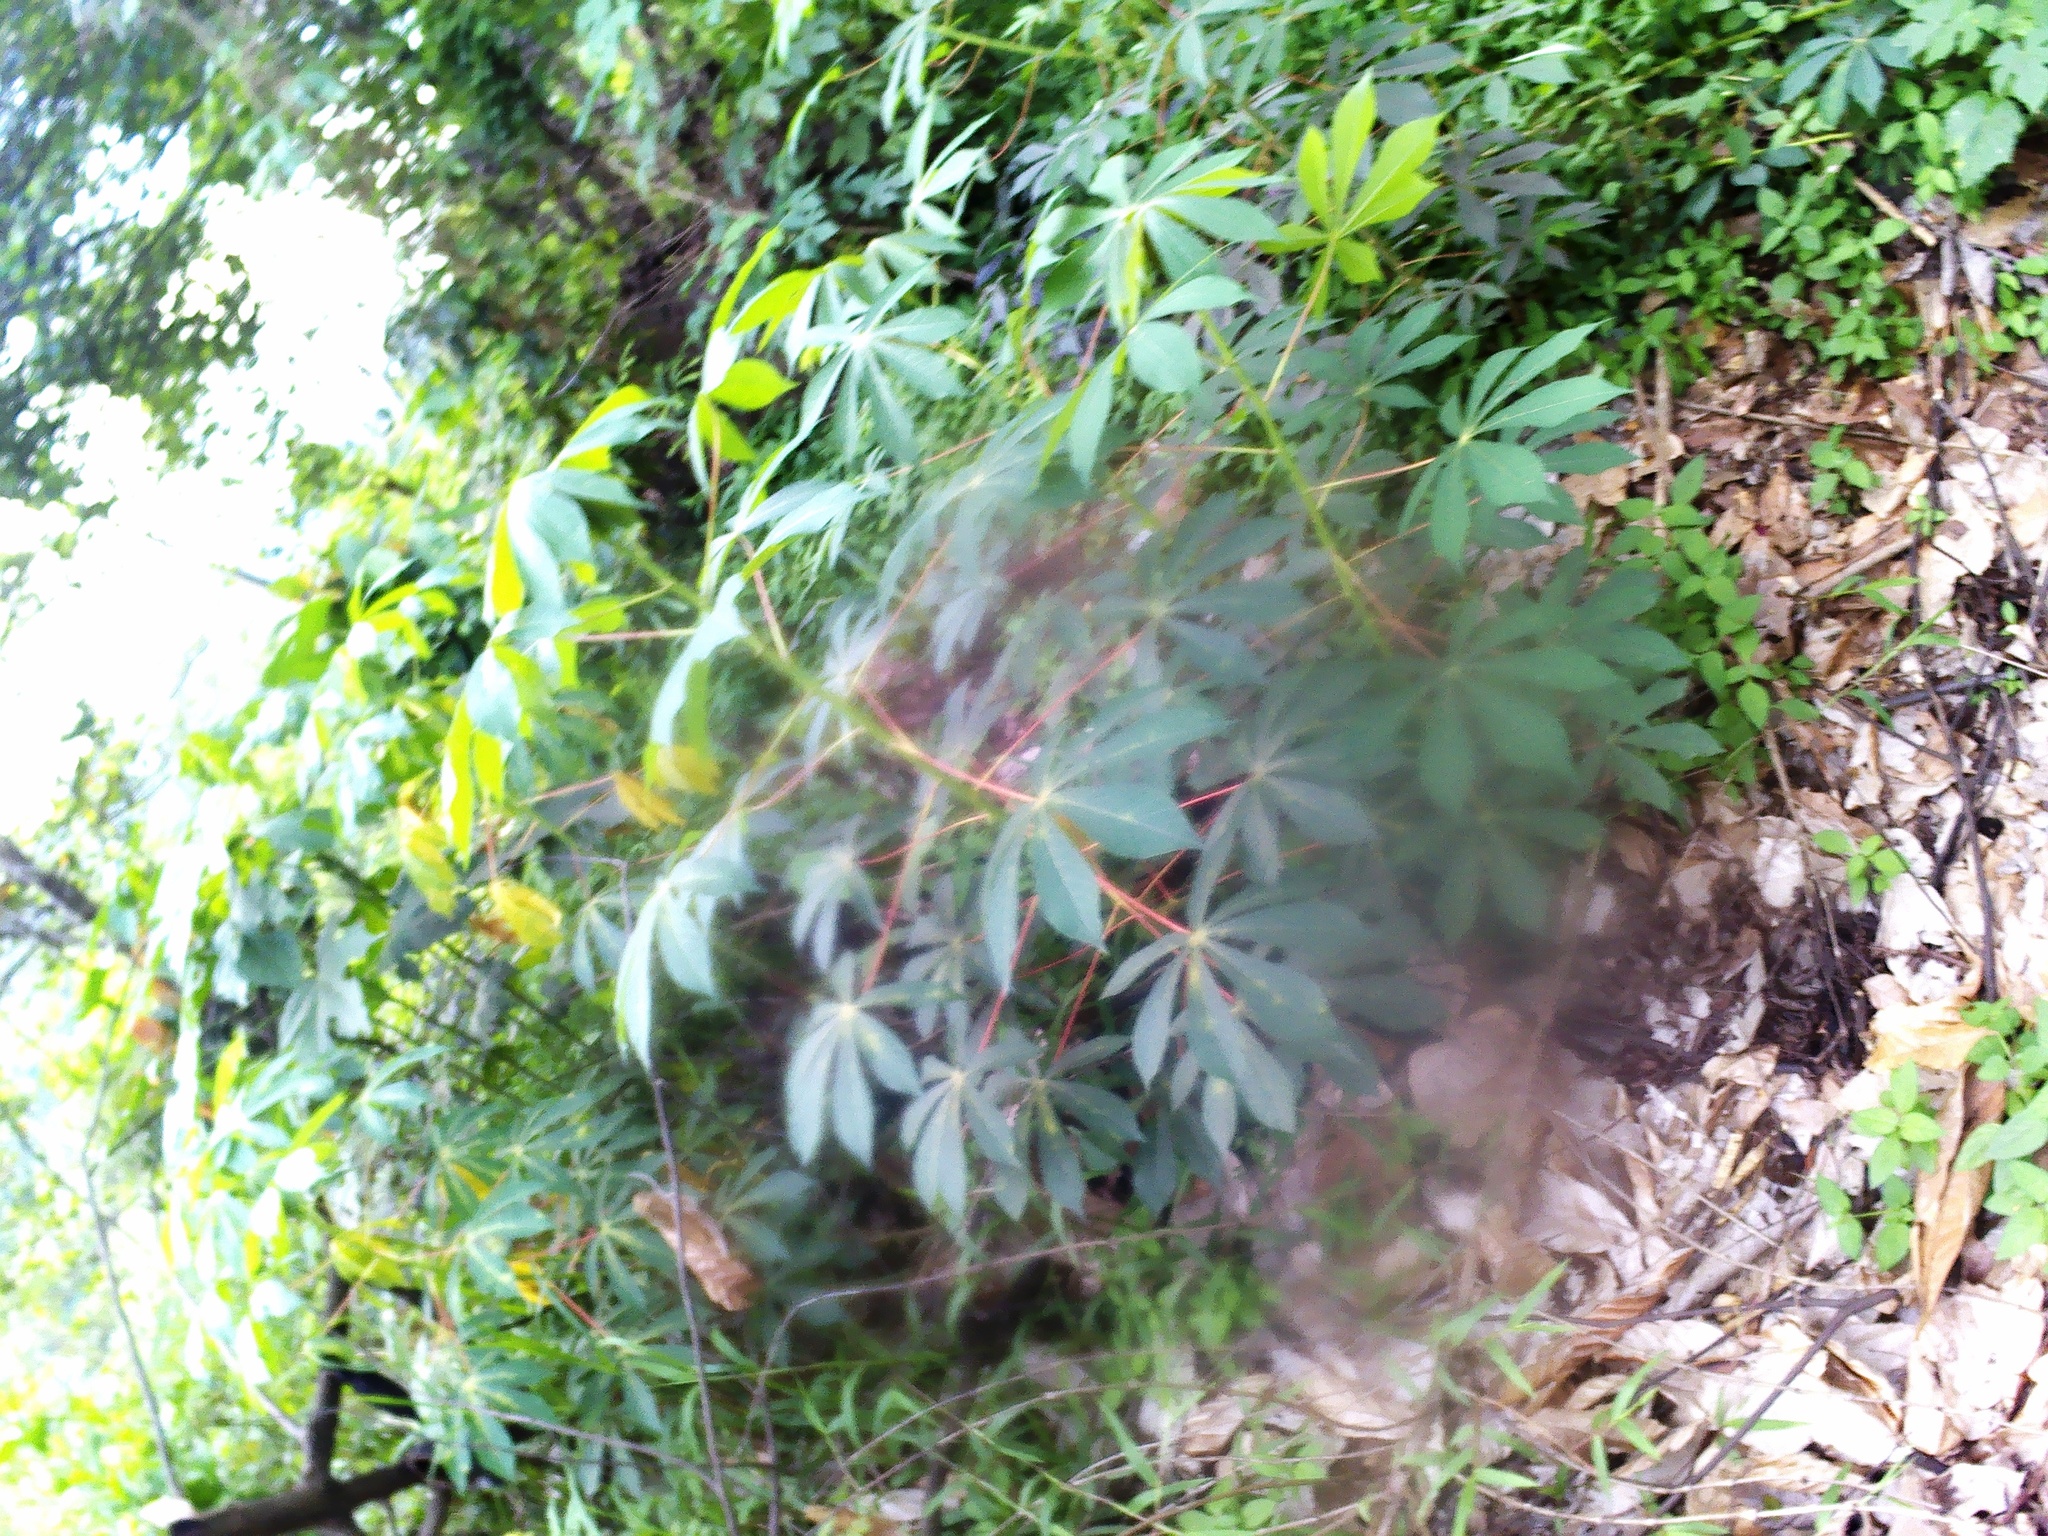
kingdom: Plantae
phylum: Tracheophyta
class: Magnoliopsida
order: Malpighiales
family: Euphorbiaceae
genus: Manihot
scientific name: Manihot esculenta
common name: Cassava
